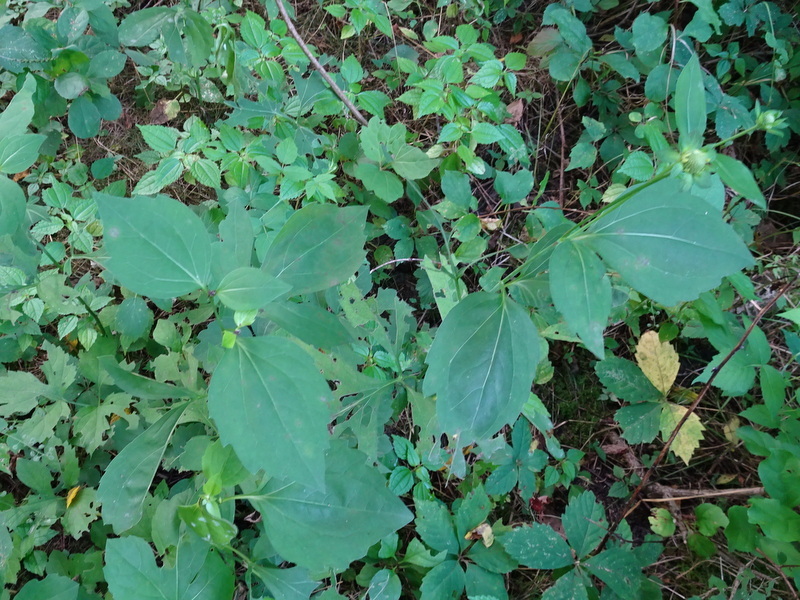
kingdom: Plantae
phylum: Tracheophyta
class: Magnoliopsida
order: Asterales
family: Asteraceae
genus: Rudbeckia
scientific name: Rudbeckia laciniata
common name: Coneflower
